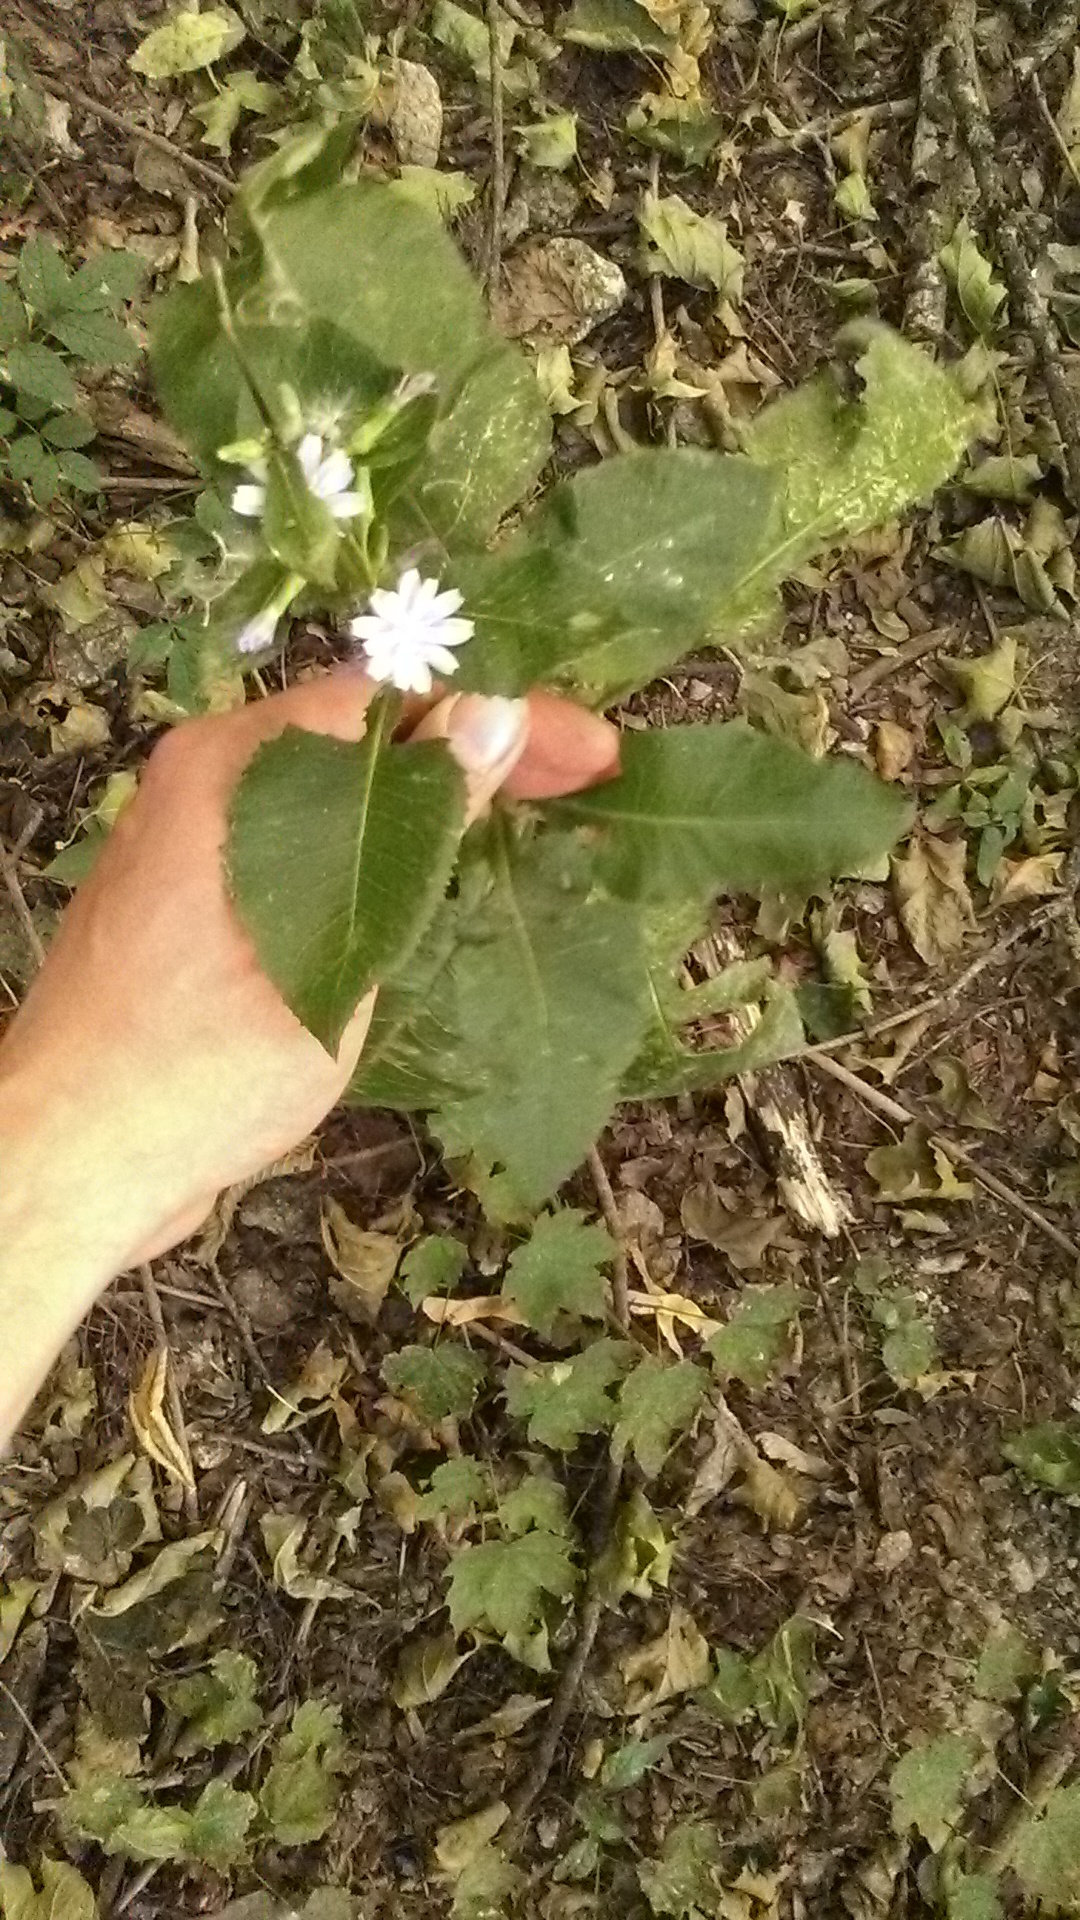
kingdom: Plantae
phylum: Tracheophyta
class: Magnoliopsida
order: Asterales
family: Asteraceae
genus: Cicerbita
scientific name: Cicerbita prenanthoides
